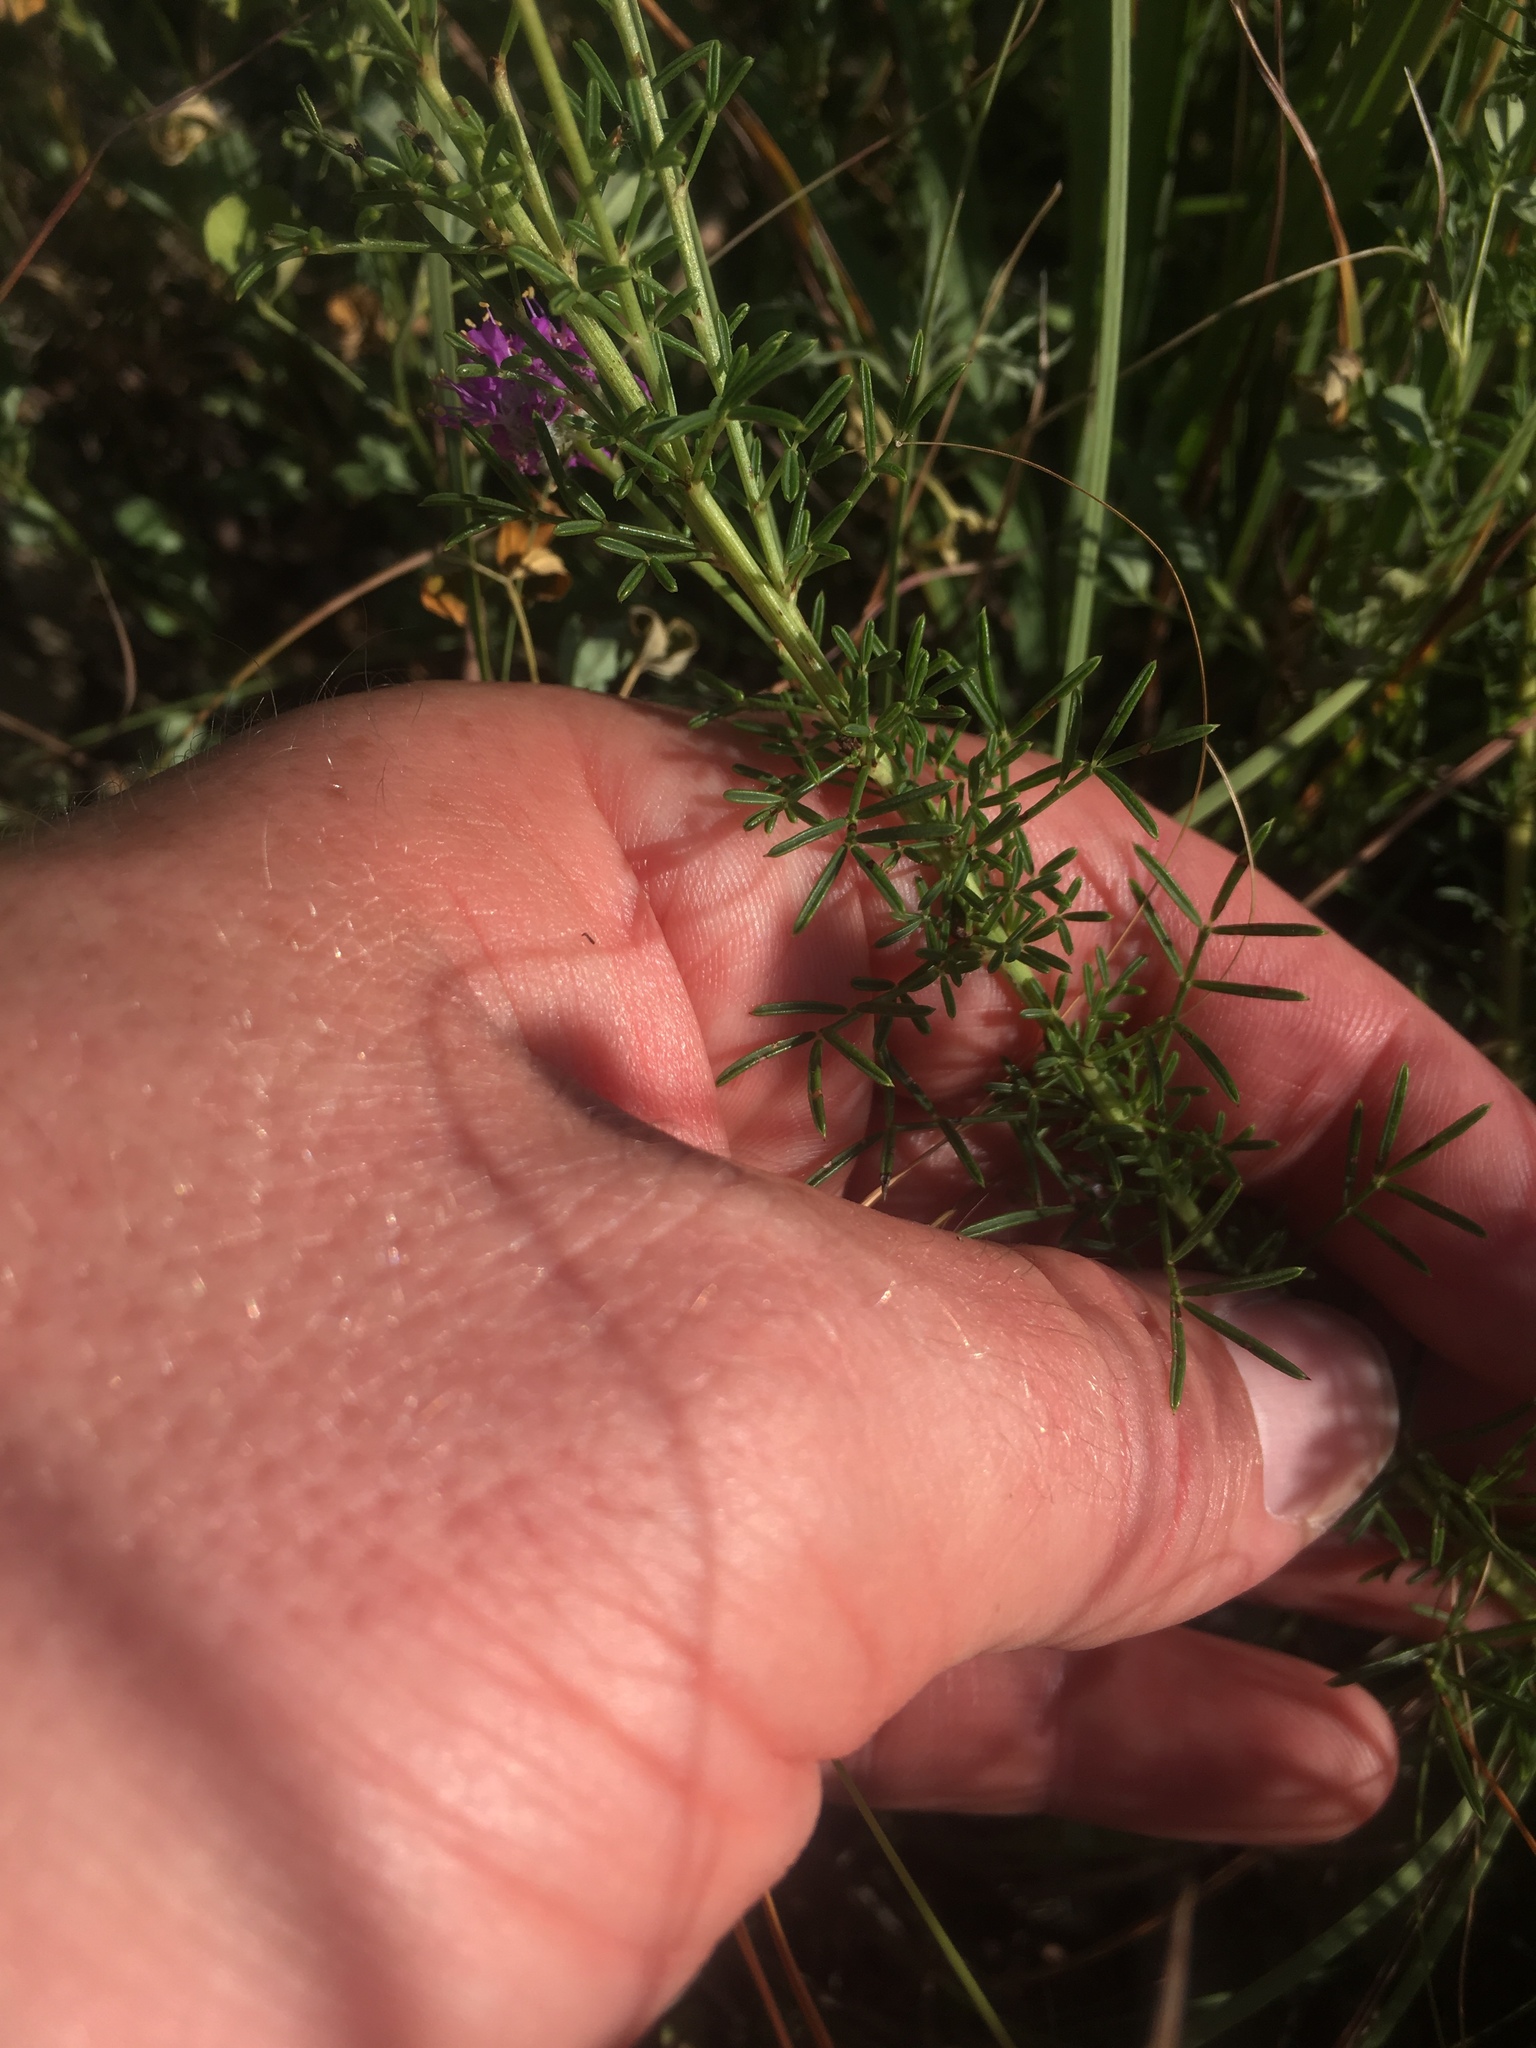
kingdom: Plantae
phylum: Tracheophyta
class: Magnoliopsida
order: Fabales
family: Fabaceae
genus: Dalea
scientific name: Dalea purpurea
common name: Purple prairie-clover
